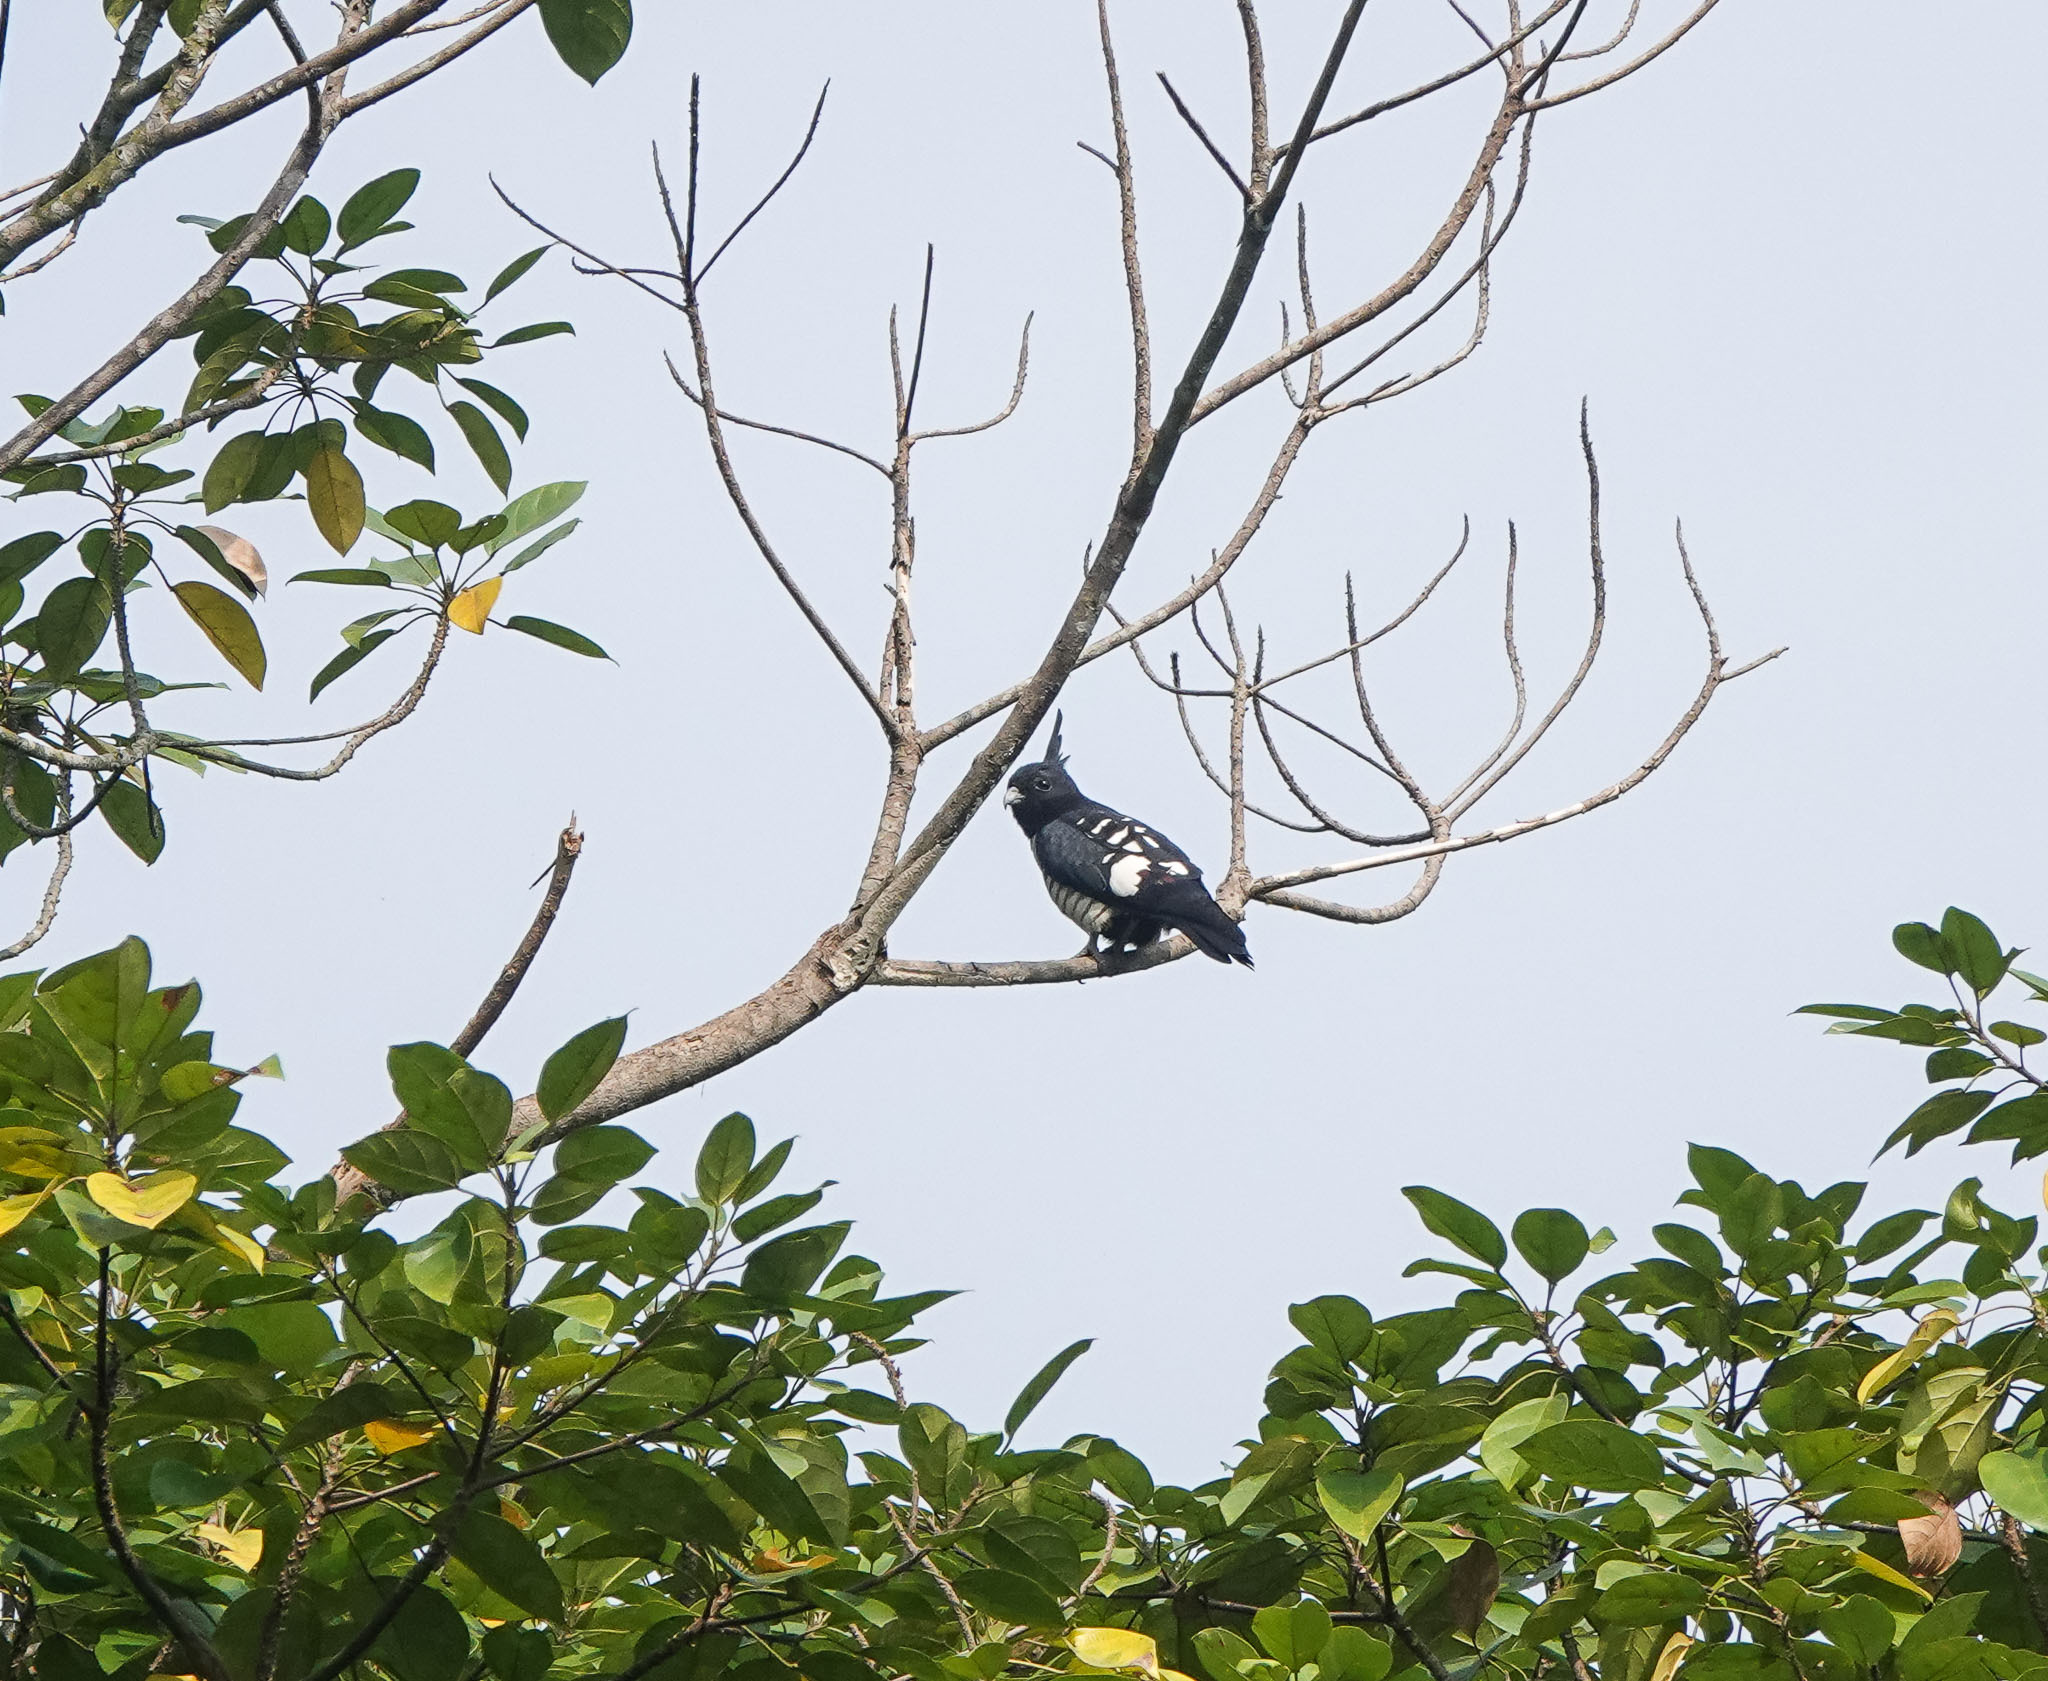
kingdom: Animalia
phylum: Chordata
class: Aves
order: Accipitriformes
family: Accipitridae
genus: Aviceda
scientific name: Aviceda leuphotes
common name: Black baza
